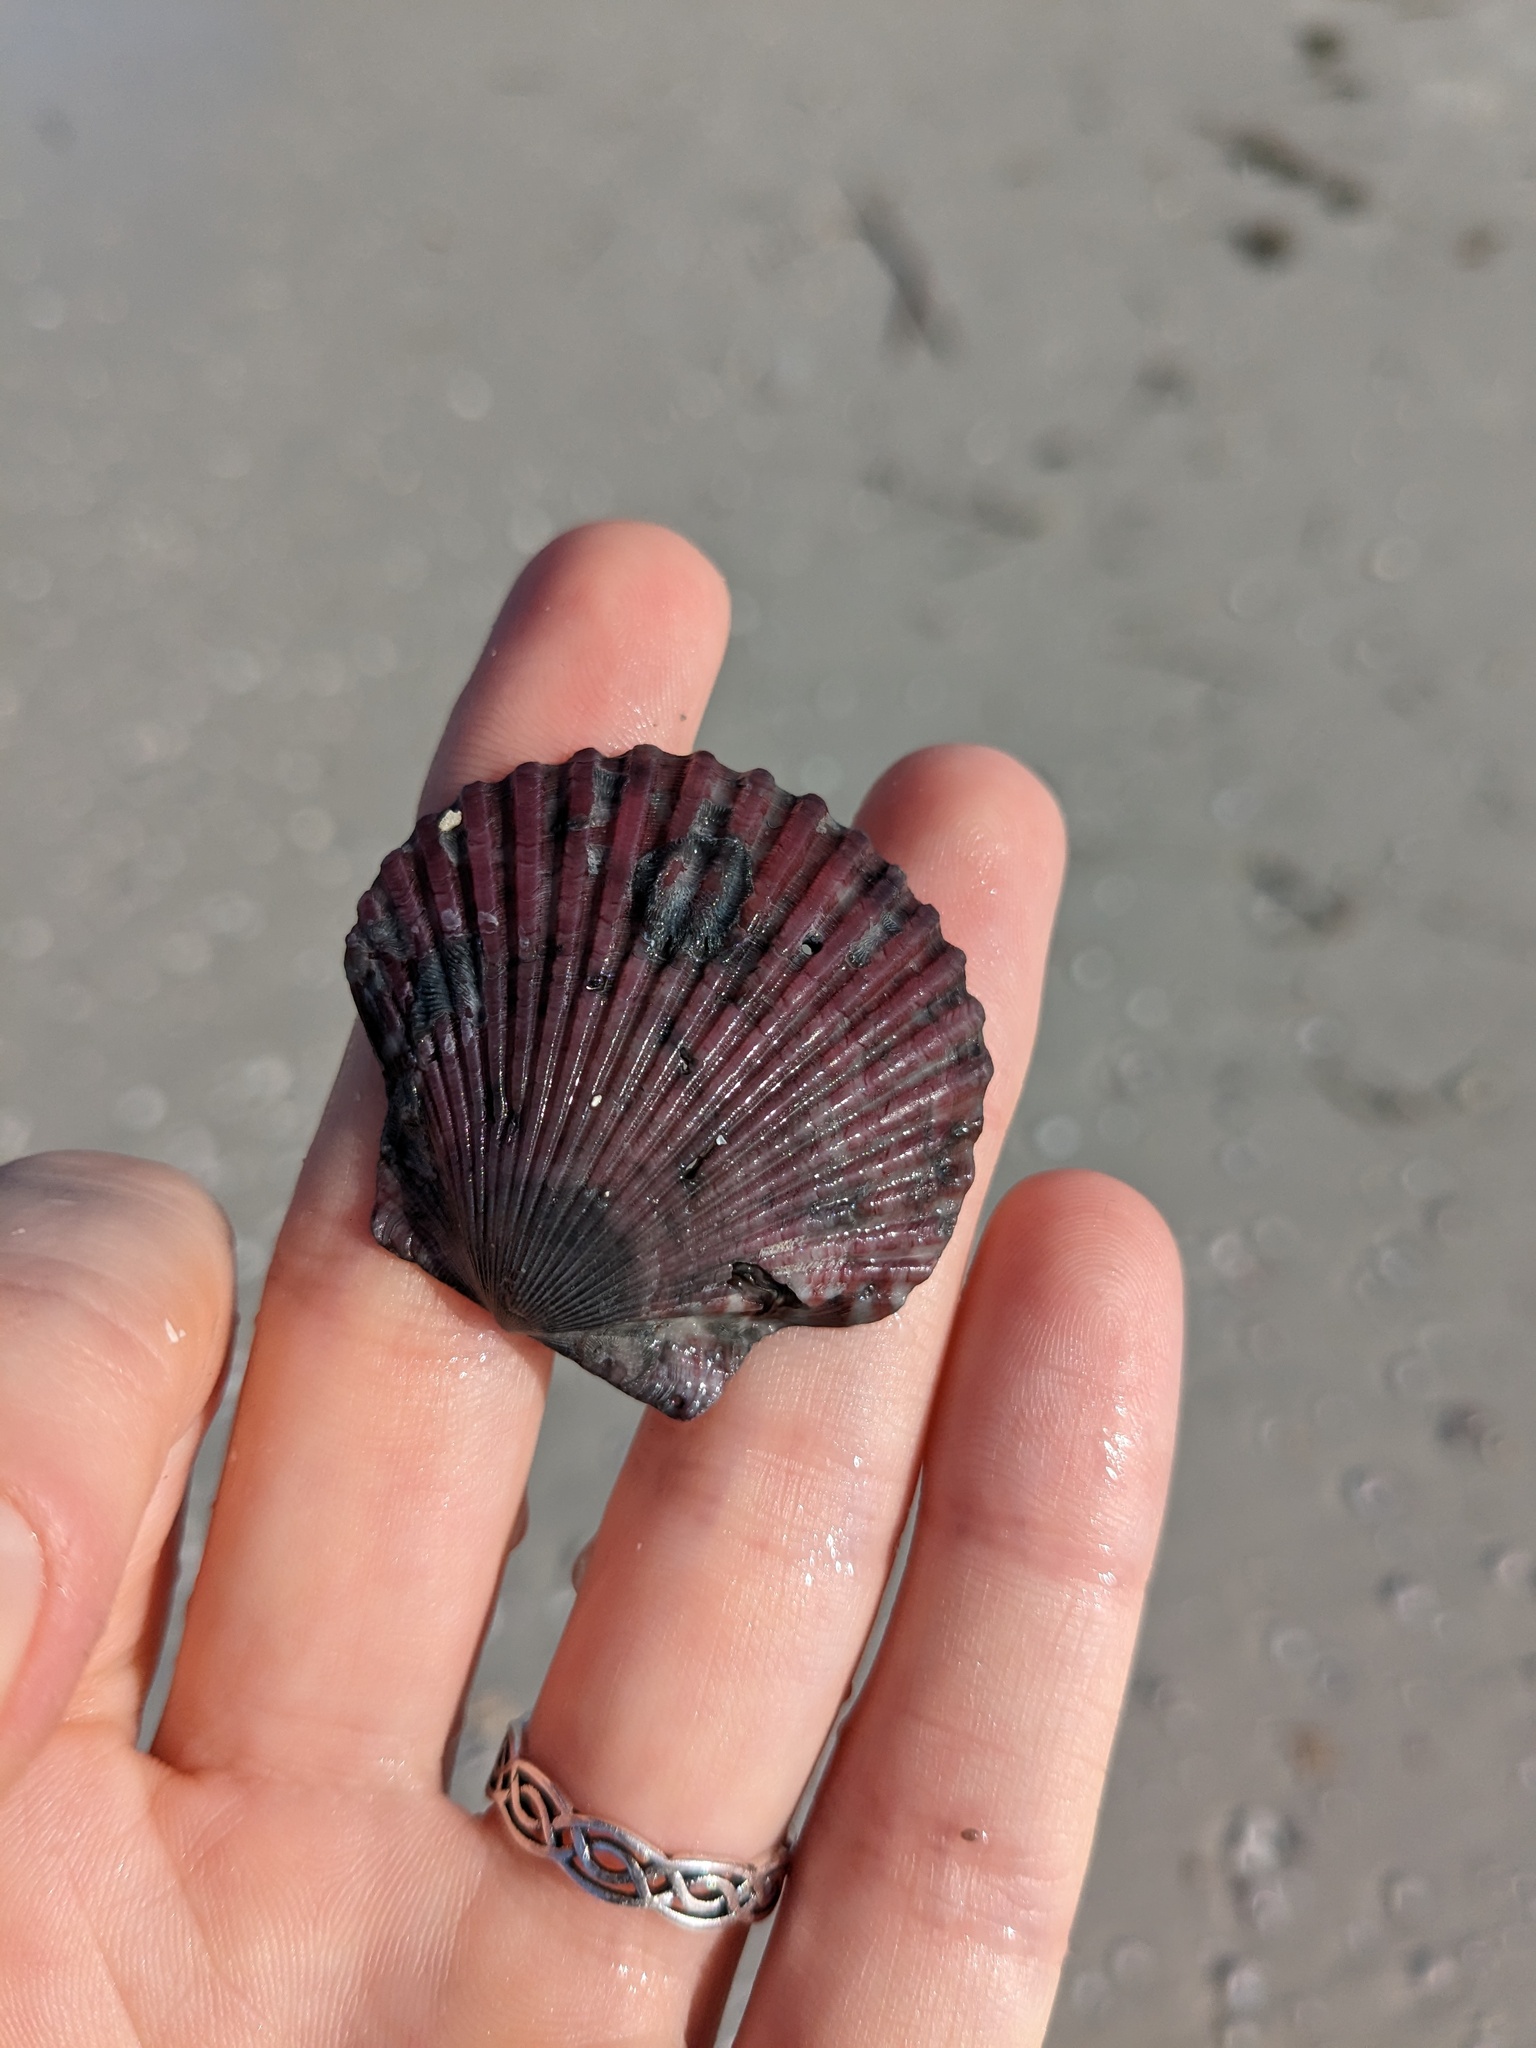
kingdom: Animalia
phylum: Mollusca
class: Bivalvia
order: Pectinida
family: Pectinidae
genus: Argopecten
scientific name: Argopecten gibbus
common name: Atlantic calico scallop
